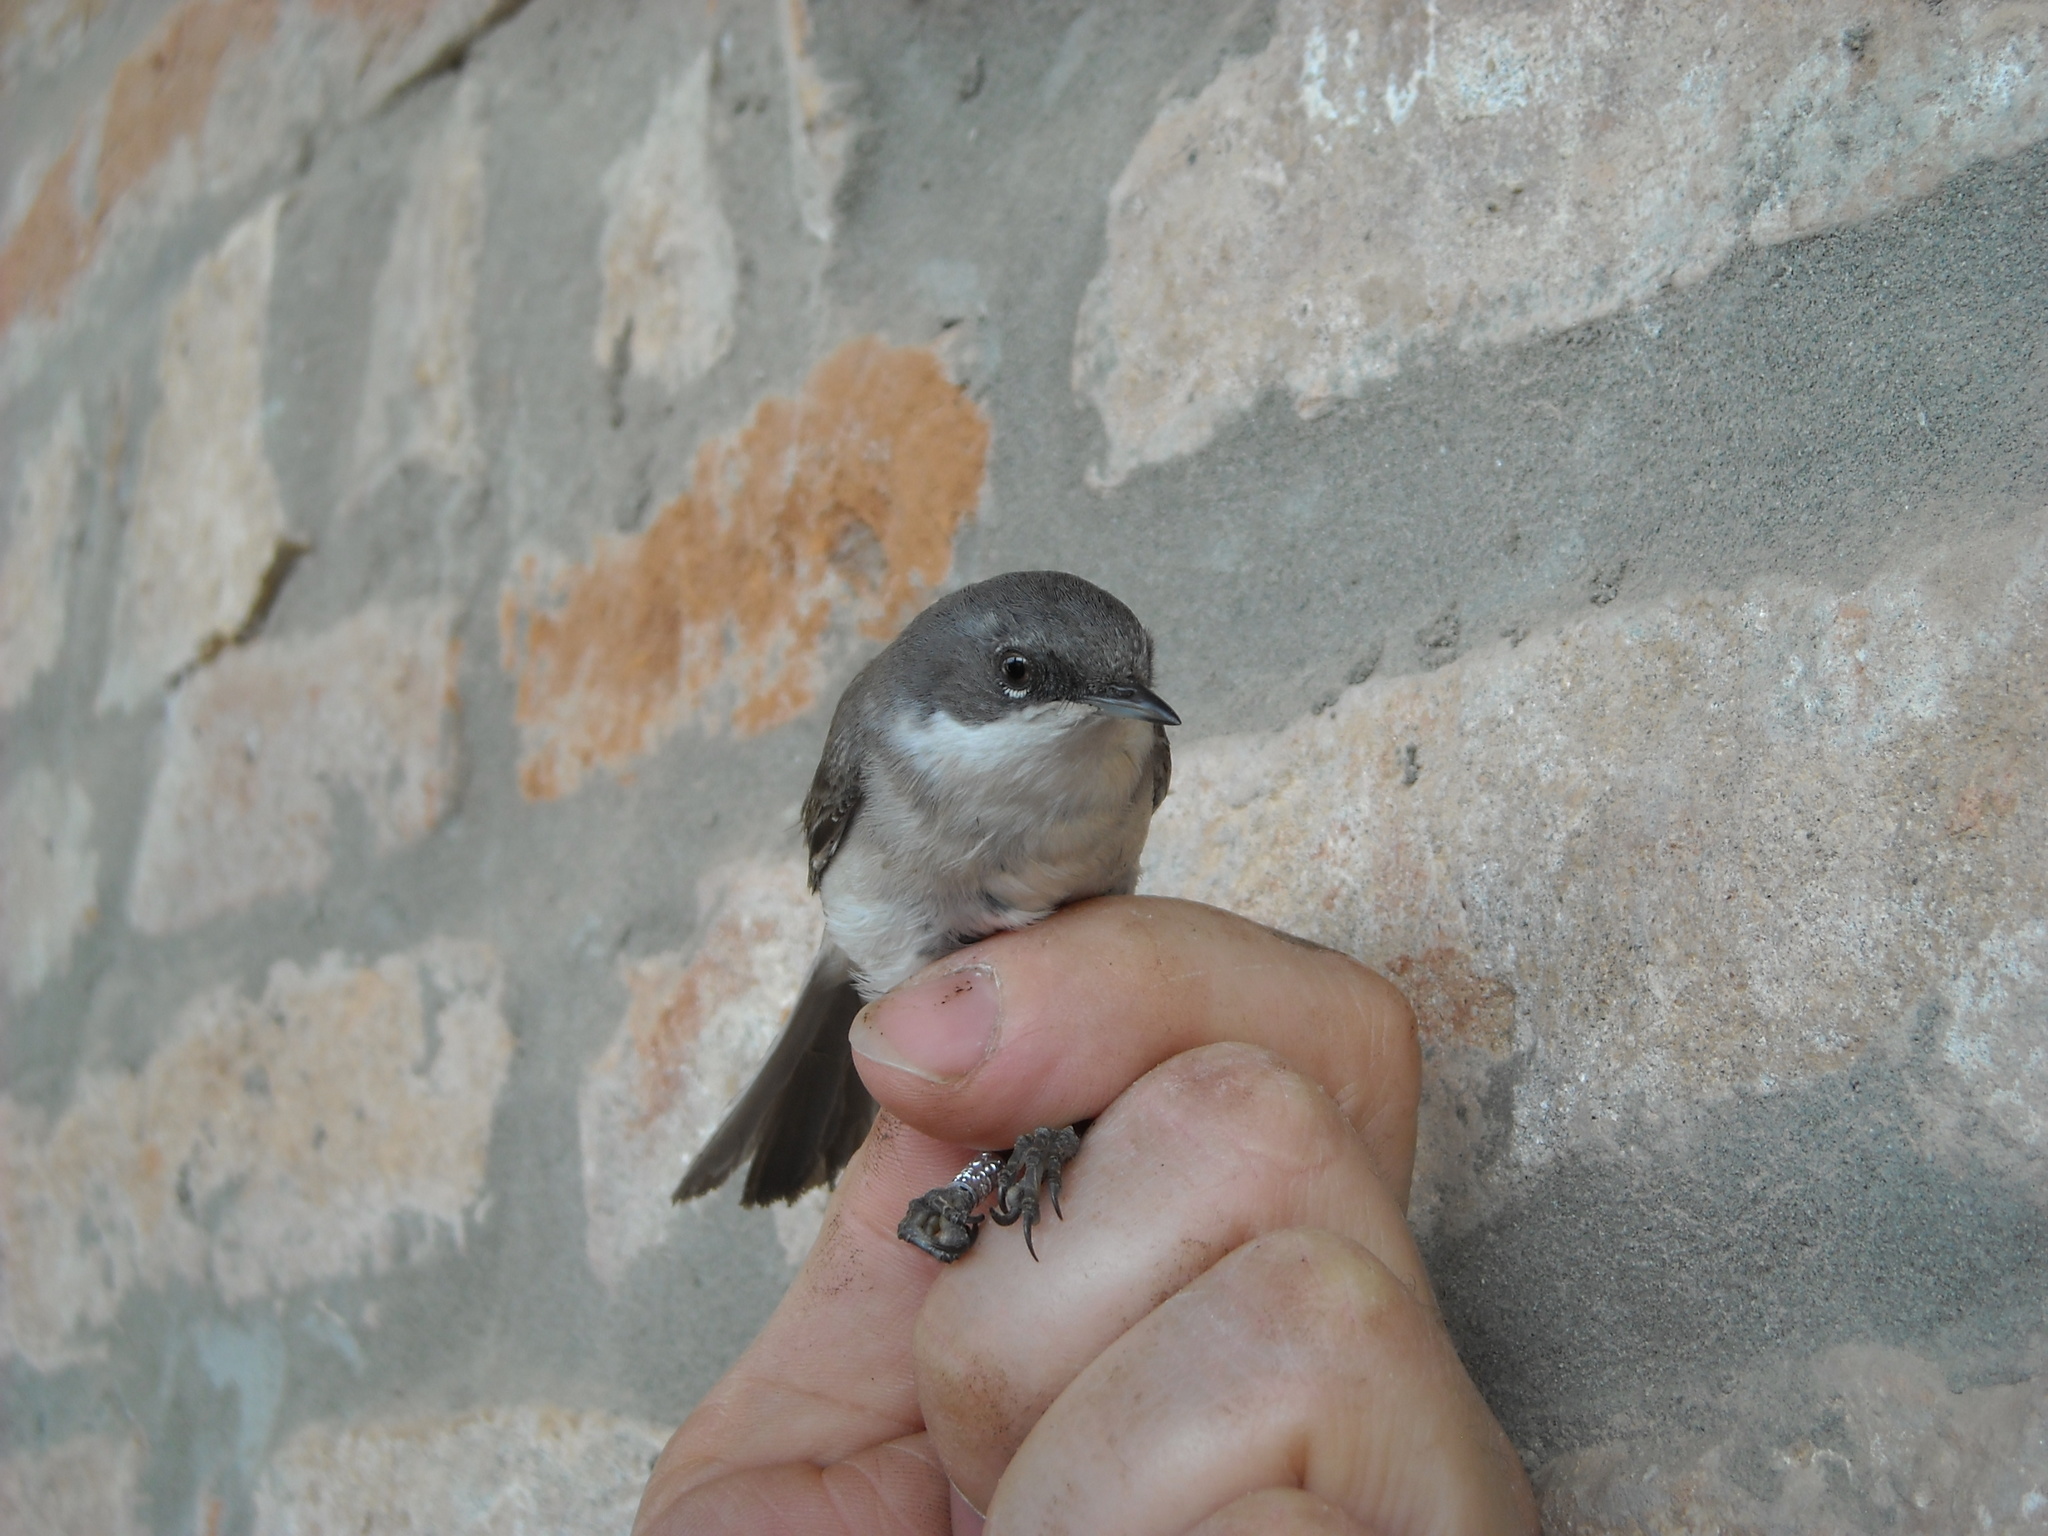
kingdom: Animalia
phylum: Chordata
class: Aves
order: Passeriformes
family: Sylviidae
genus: Sylvia
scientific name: Sylvia curruca
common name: Lesser whitethroat
